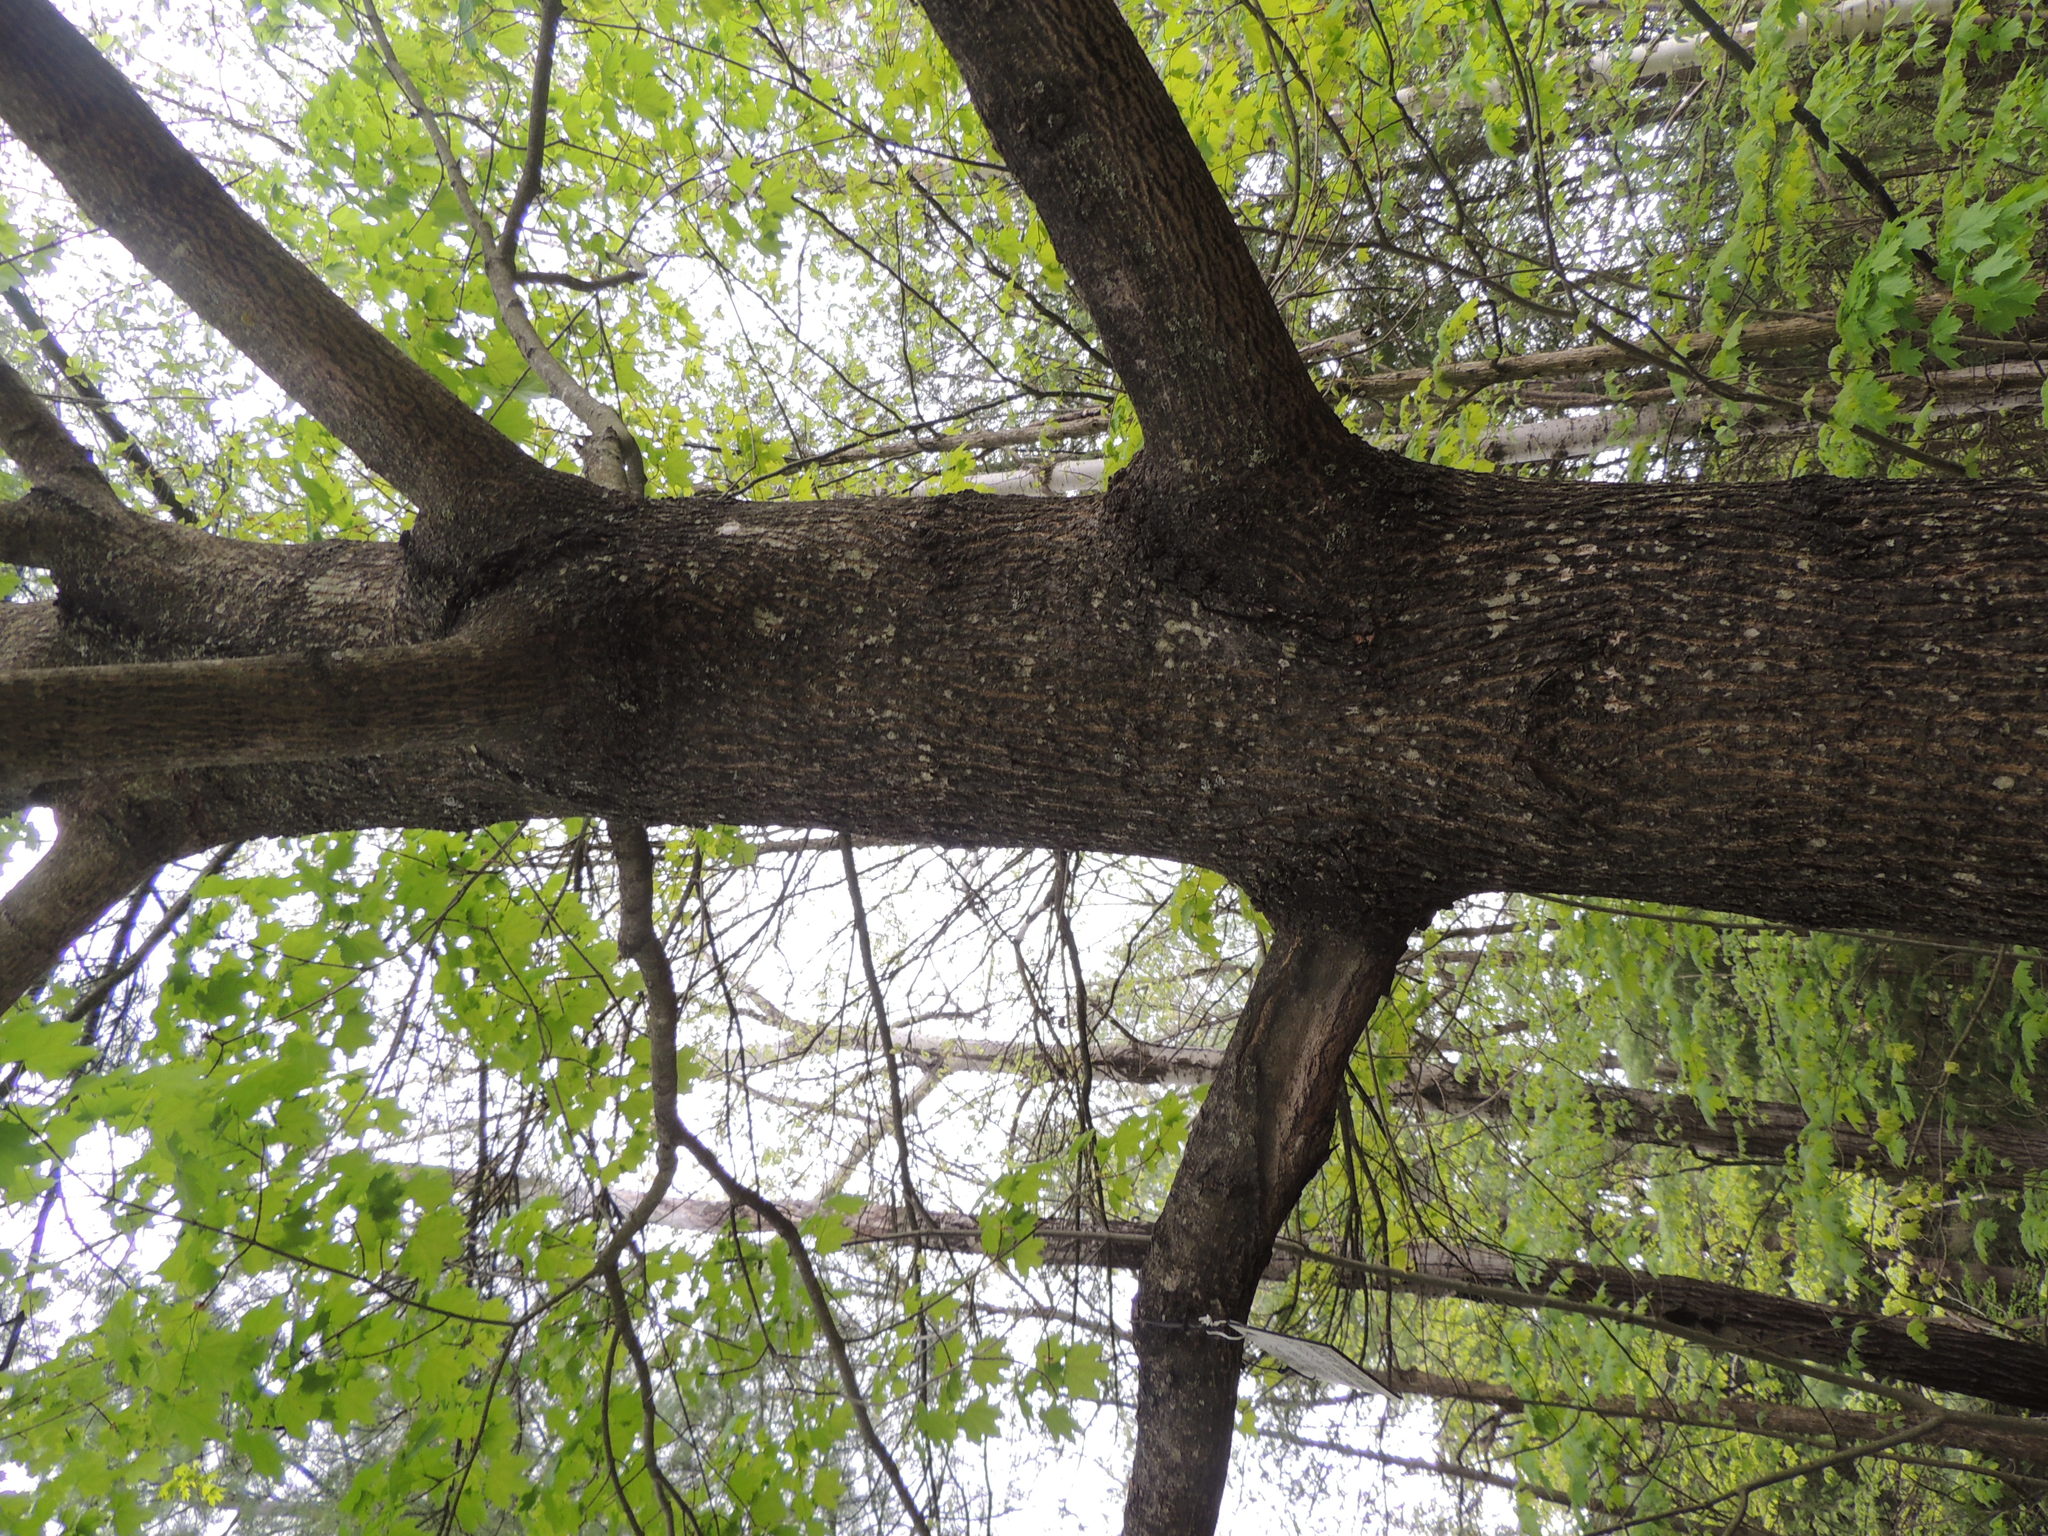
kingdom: Plantae
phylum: Tracheophyta
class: Magnoliopsida
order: Sapindales
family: Sapindaceae
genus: Acer
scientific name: Acer saccharum
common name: Sugar maple
